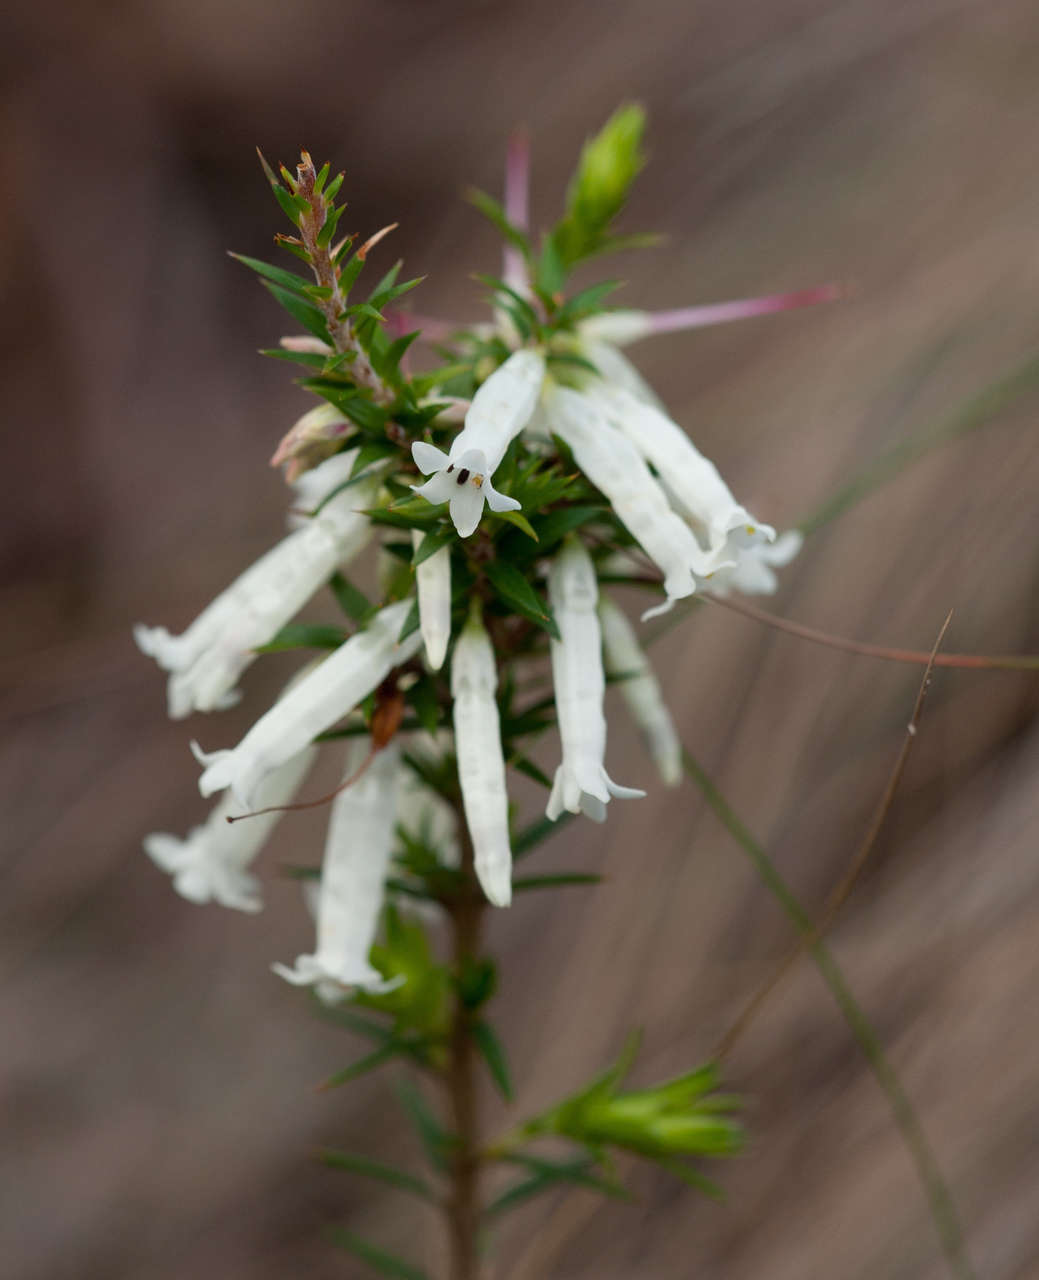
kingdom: Plantae
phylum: Tracheophyta
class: Magnoliopsida
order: Ericales
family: Ericaceae
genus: Epacris
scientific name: Epacris impressa
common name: Common-heath
